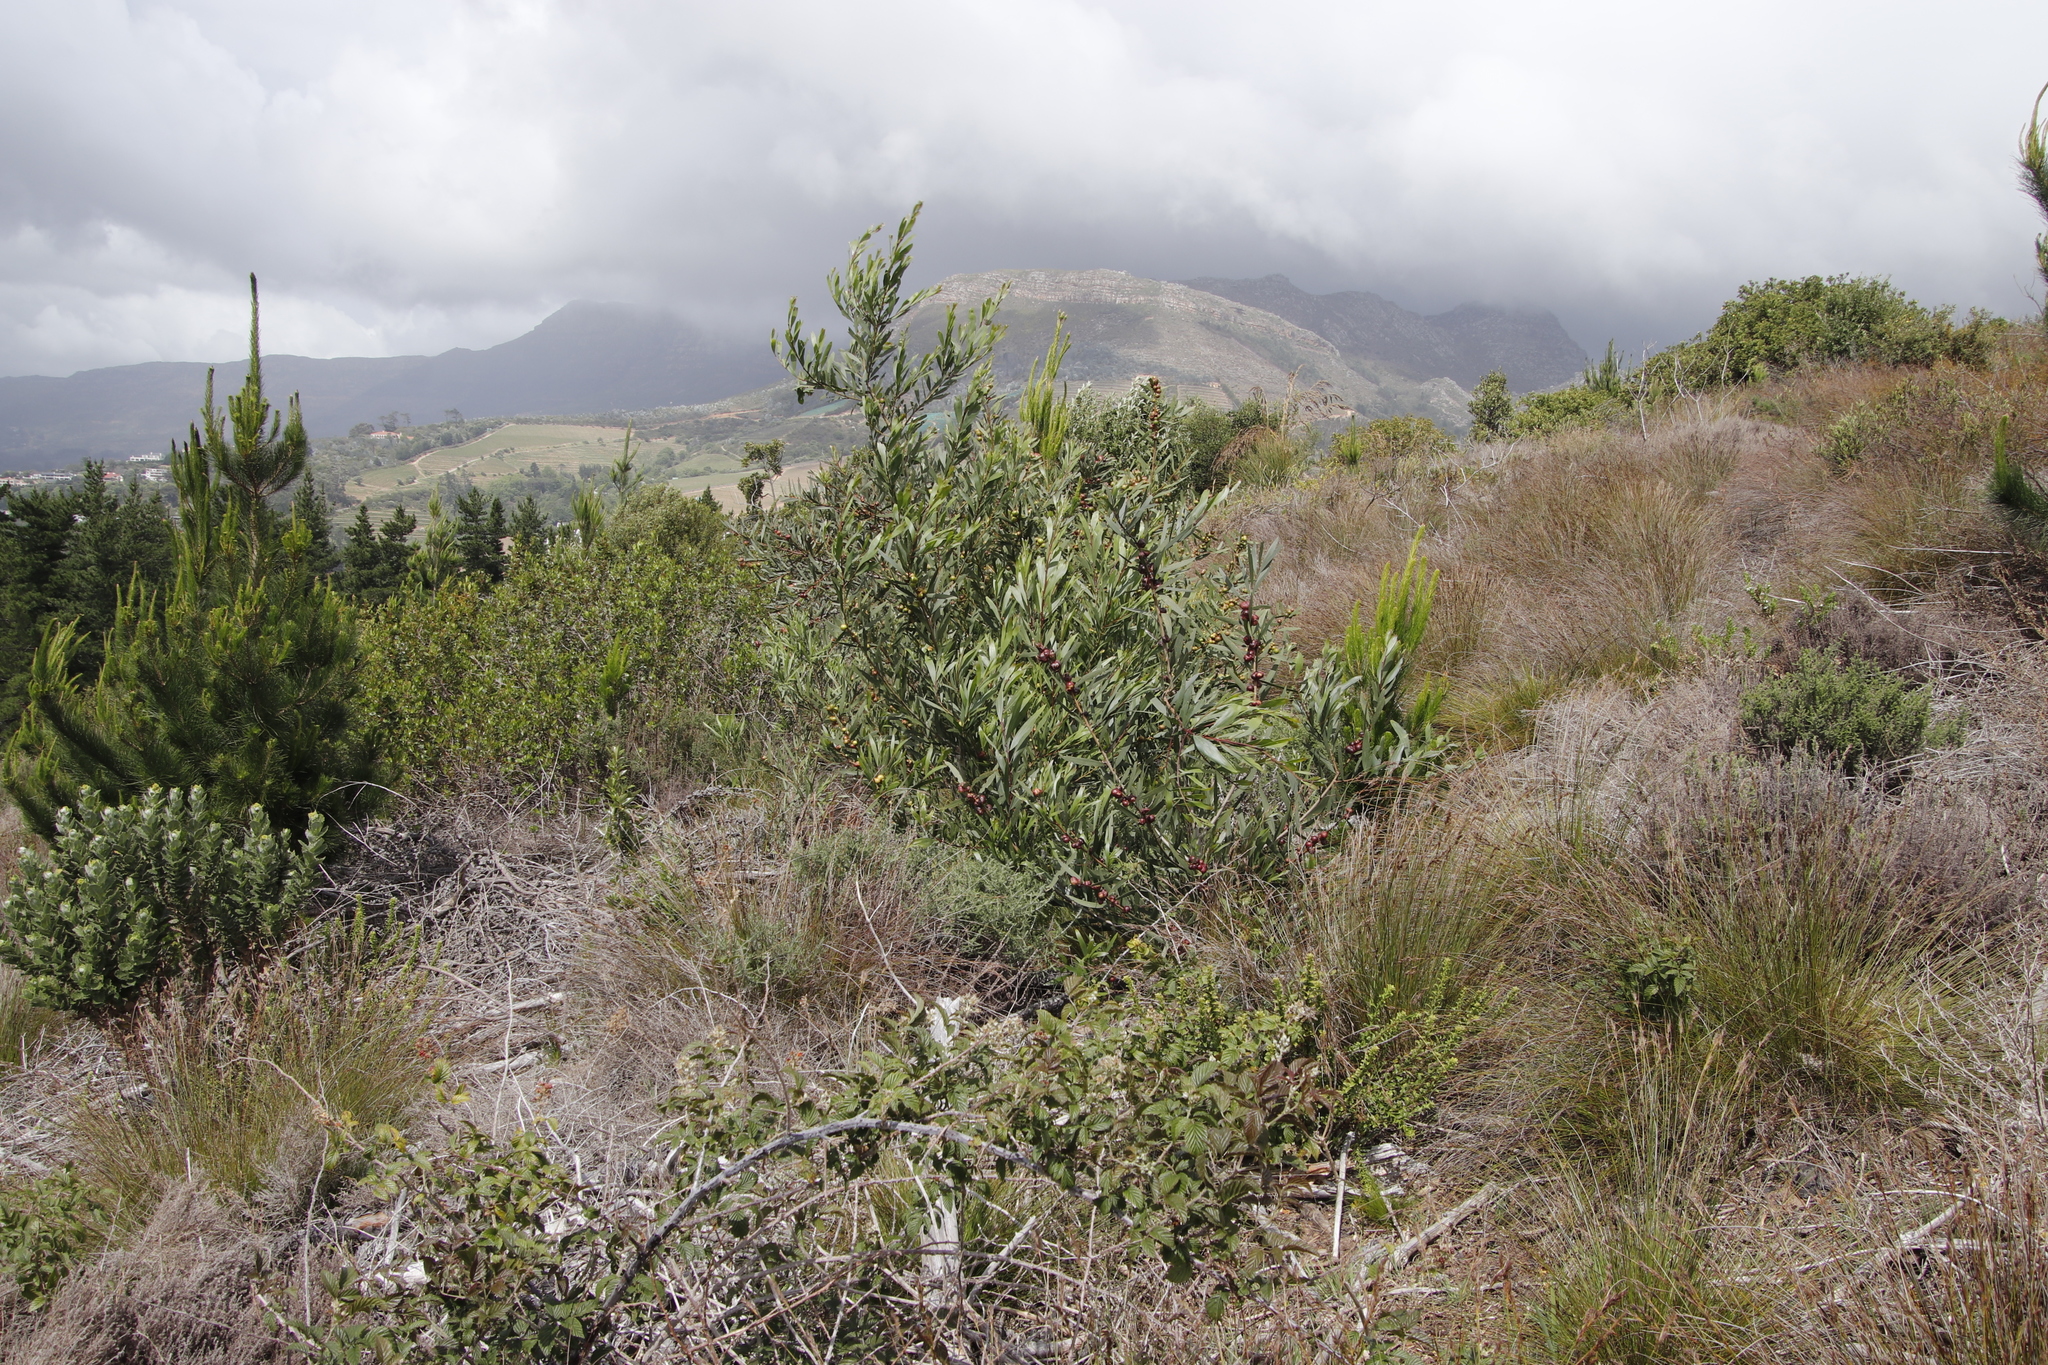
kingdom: Plantae
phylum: Tracheophyta
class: Magnoliopsida
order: Fabales
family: Fabaceae
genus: Acacia
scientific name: Acacia longifolia
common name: Sydney golden wattle
